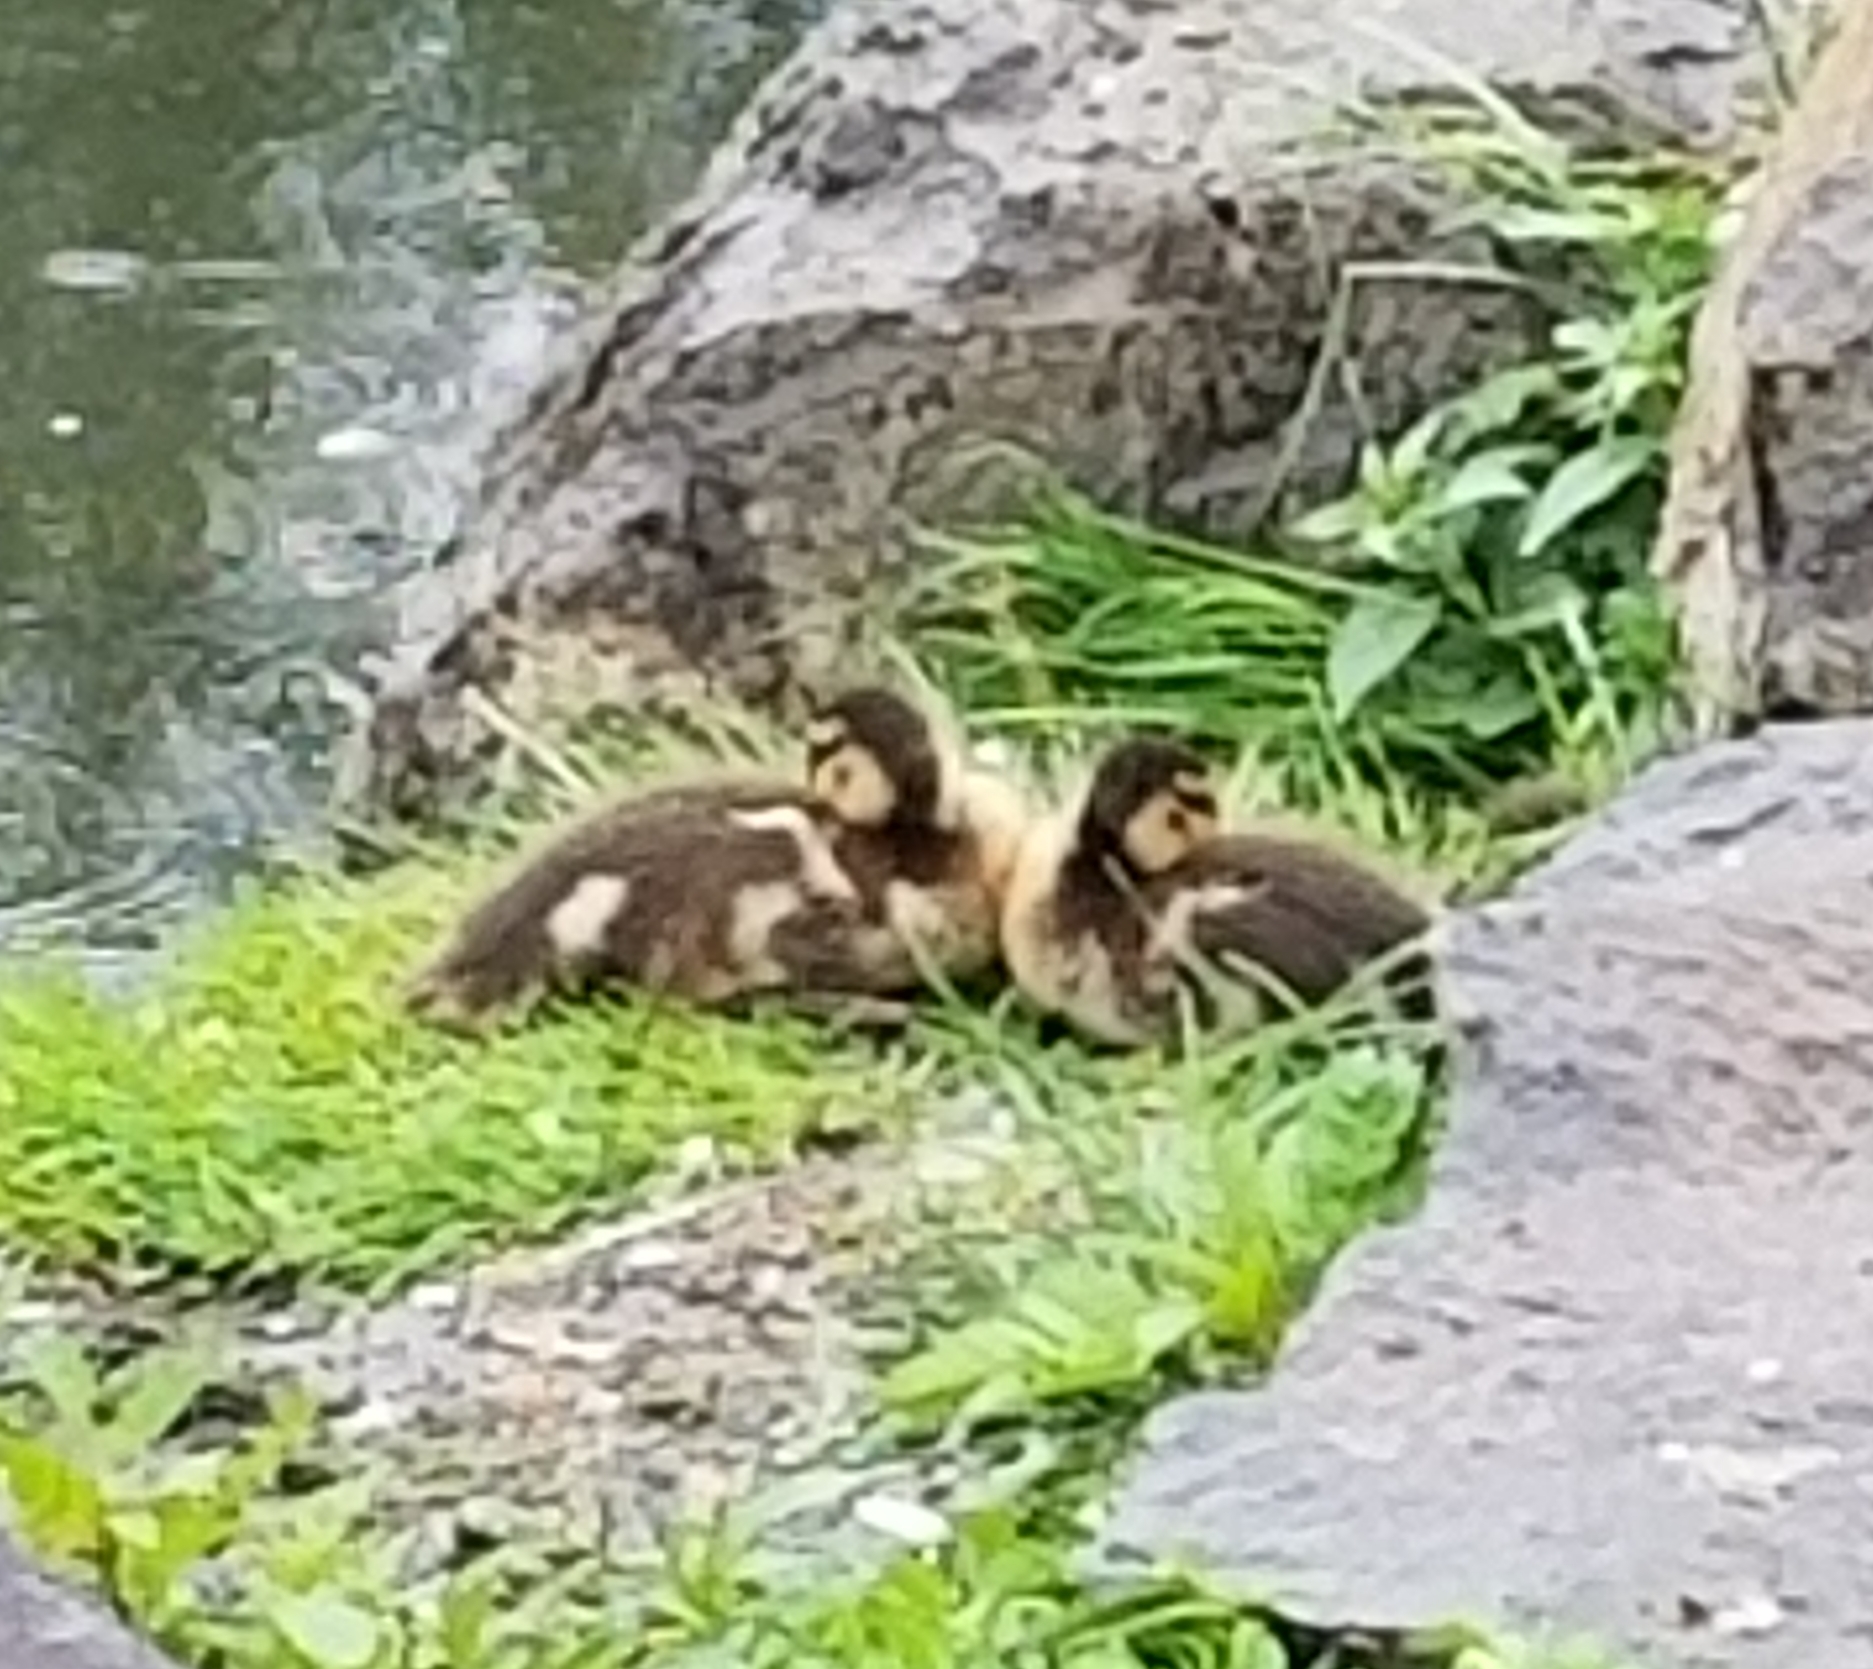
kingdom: Animalia
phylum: Chordata
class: Aves
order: Anseriformes
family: Anatidae
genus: Anas
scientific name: Anas platyrhynchos
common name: Mallard
